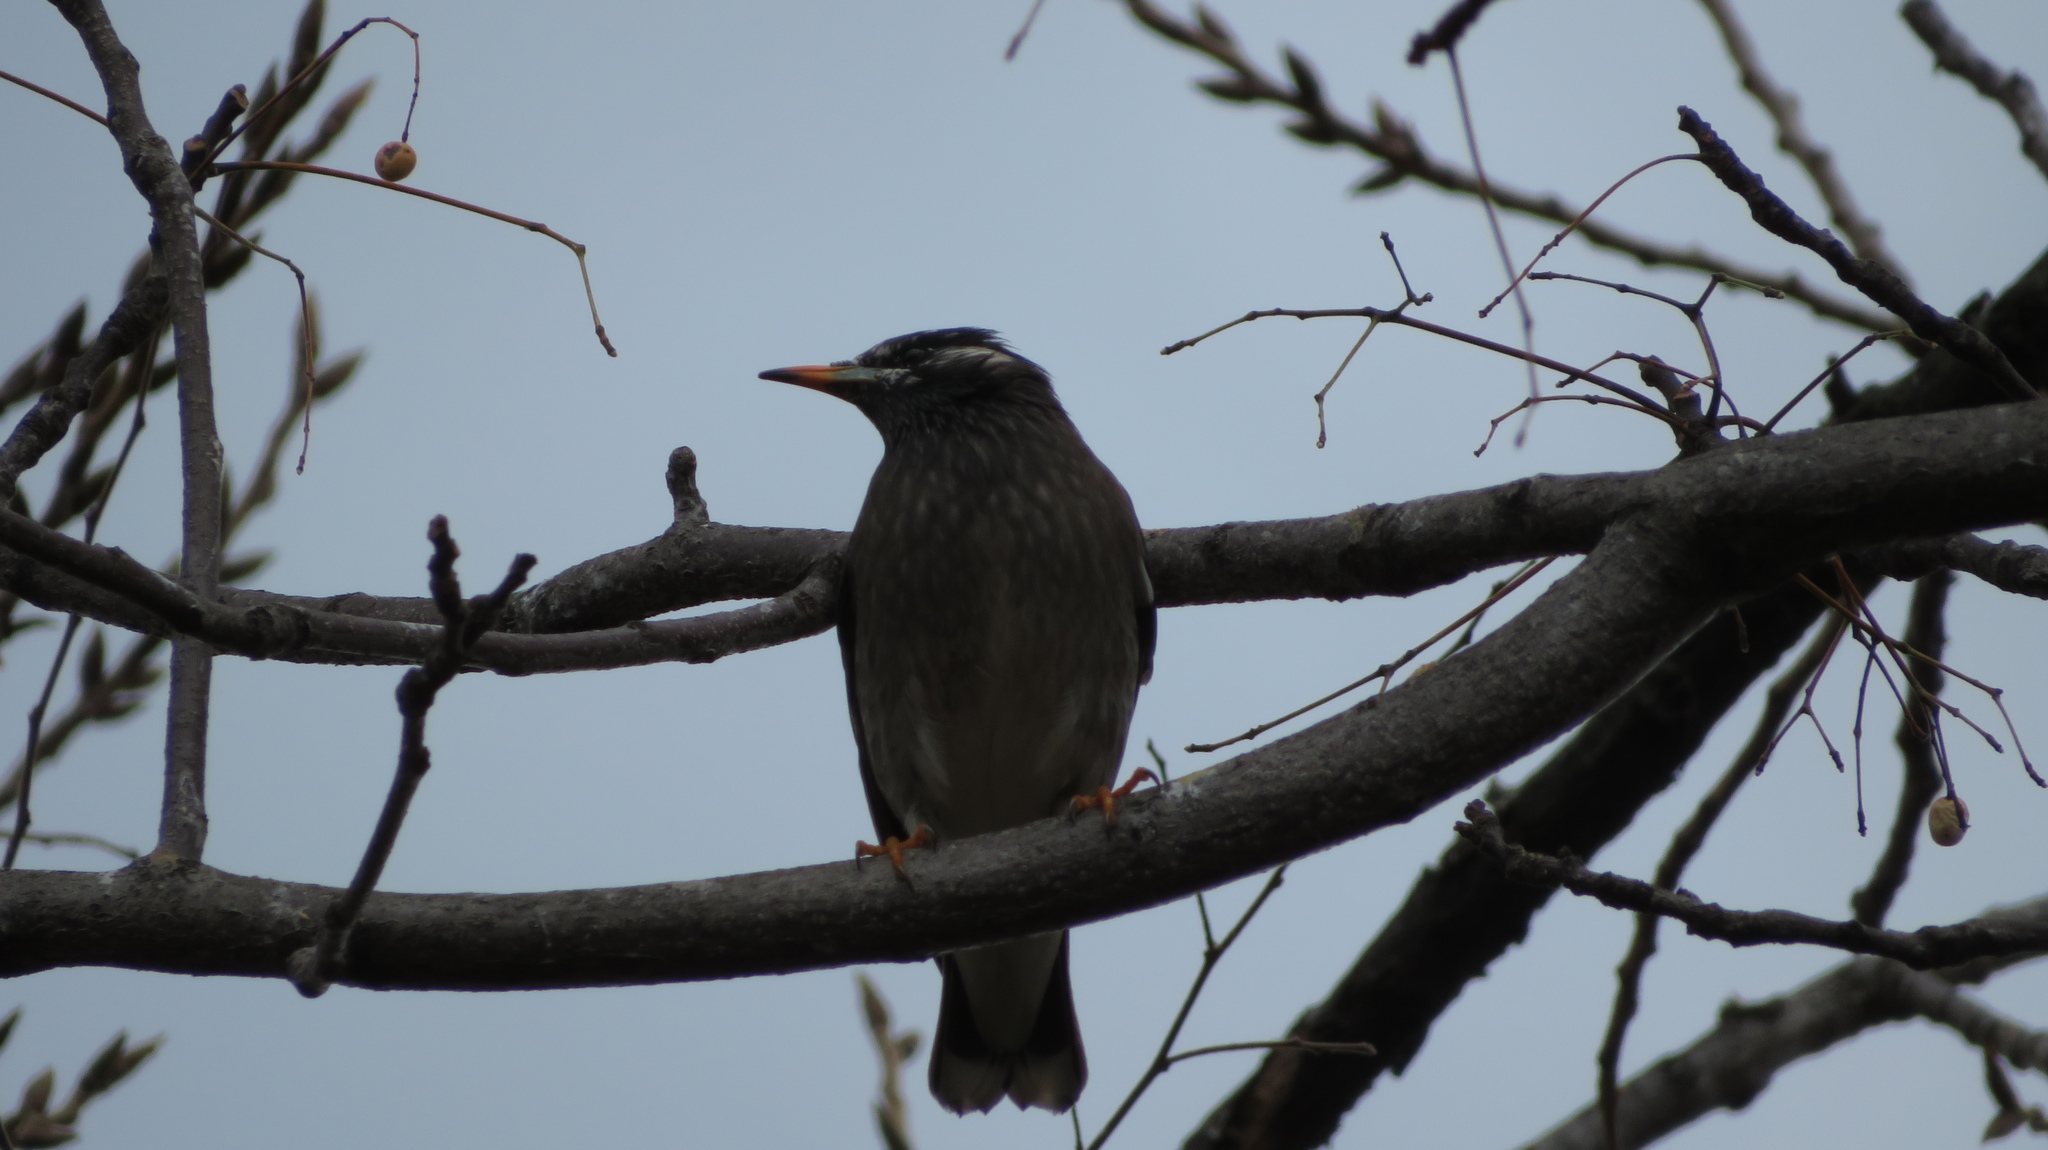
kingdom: Animalia
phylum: Chordata
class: Aves
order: Passeriformes
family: Sturnidae
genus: Spodiopsar
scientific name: Spodiopsar cineraceus
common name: White-cheeked starling
